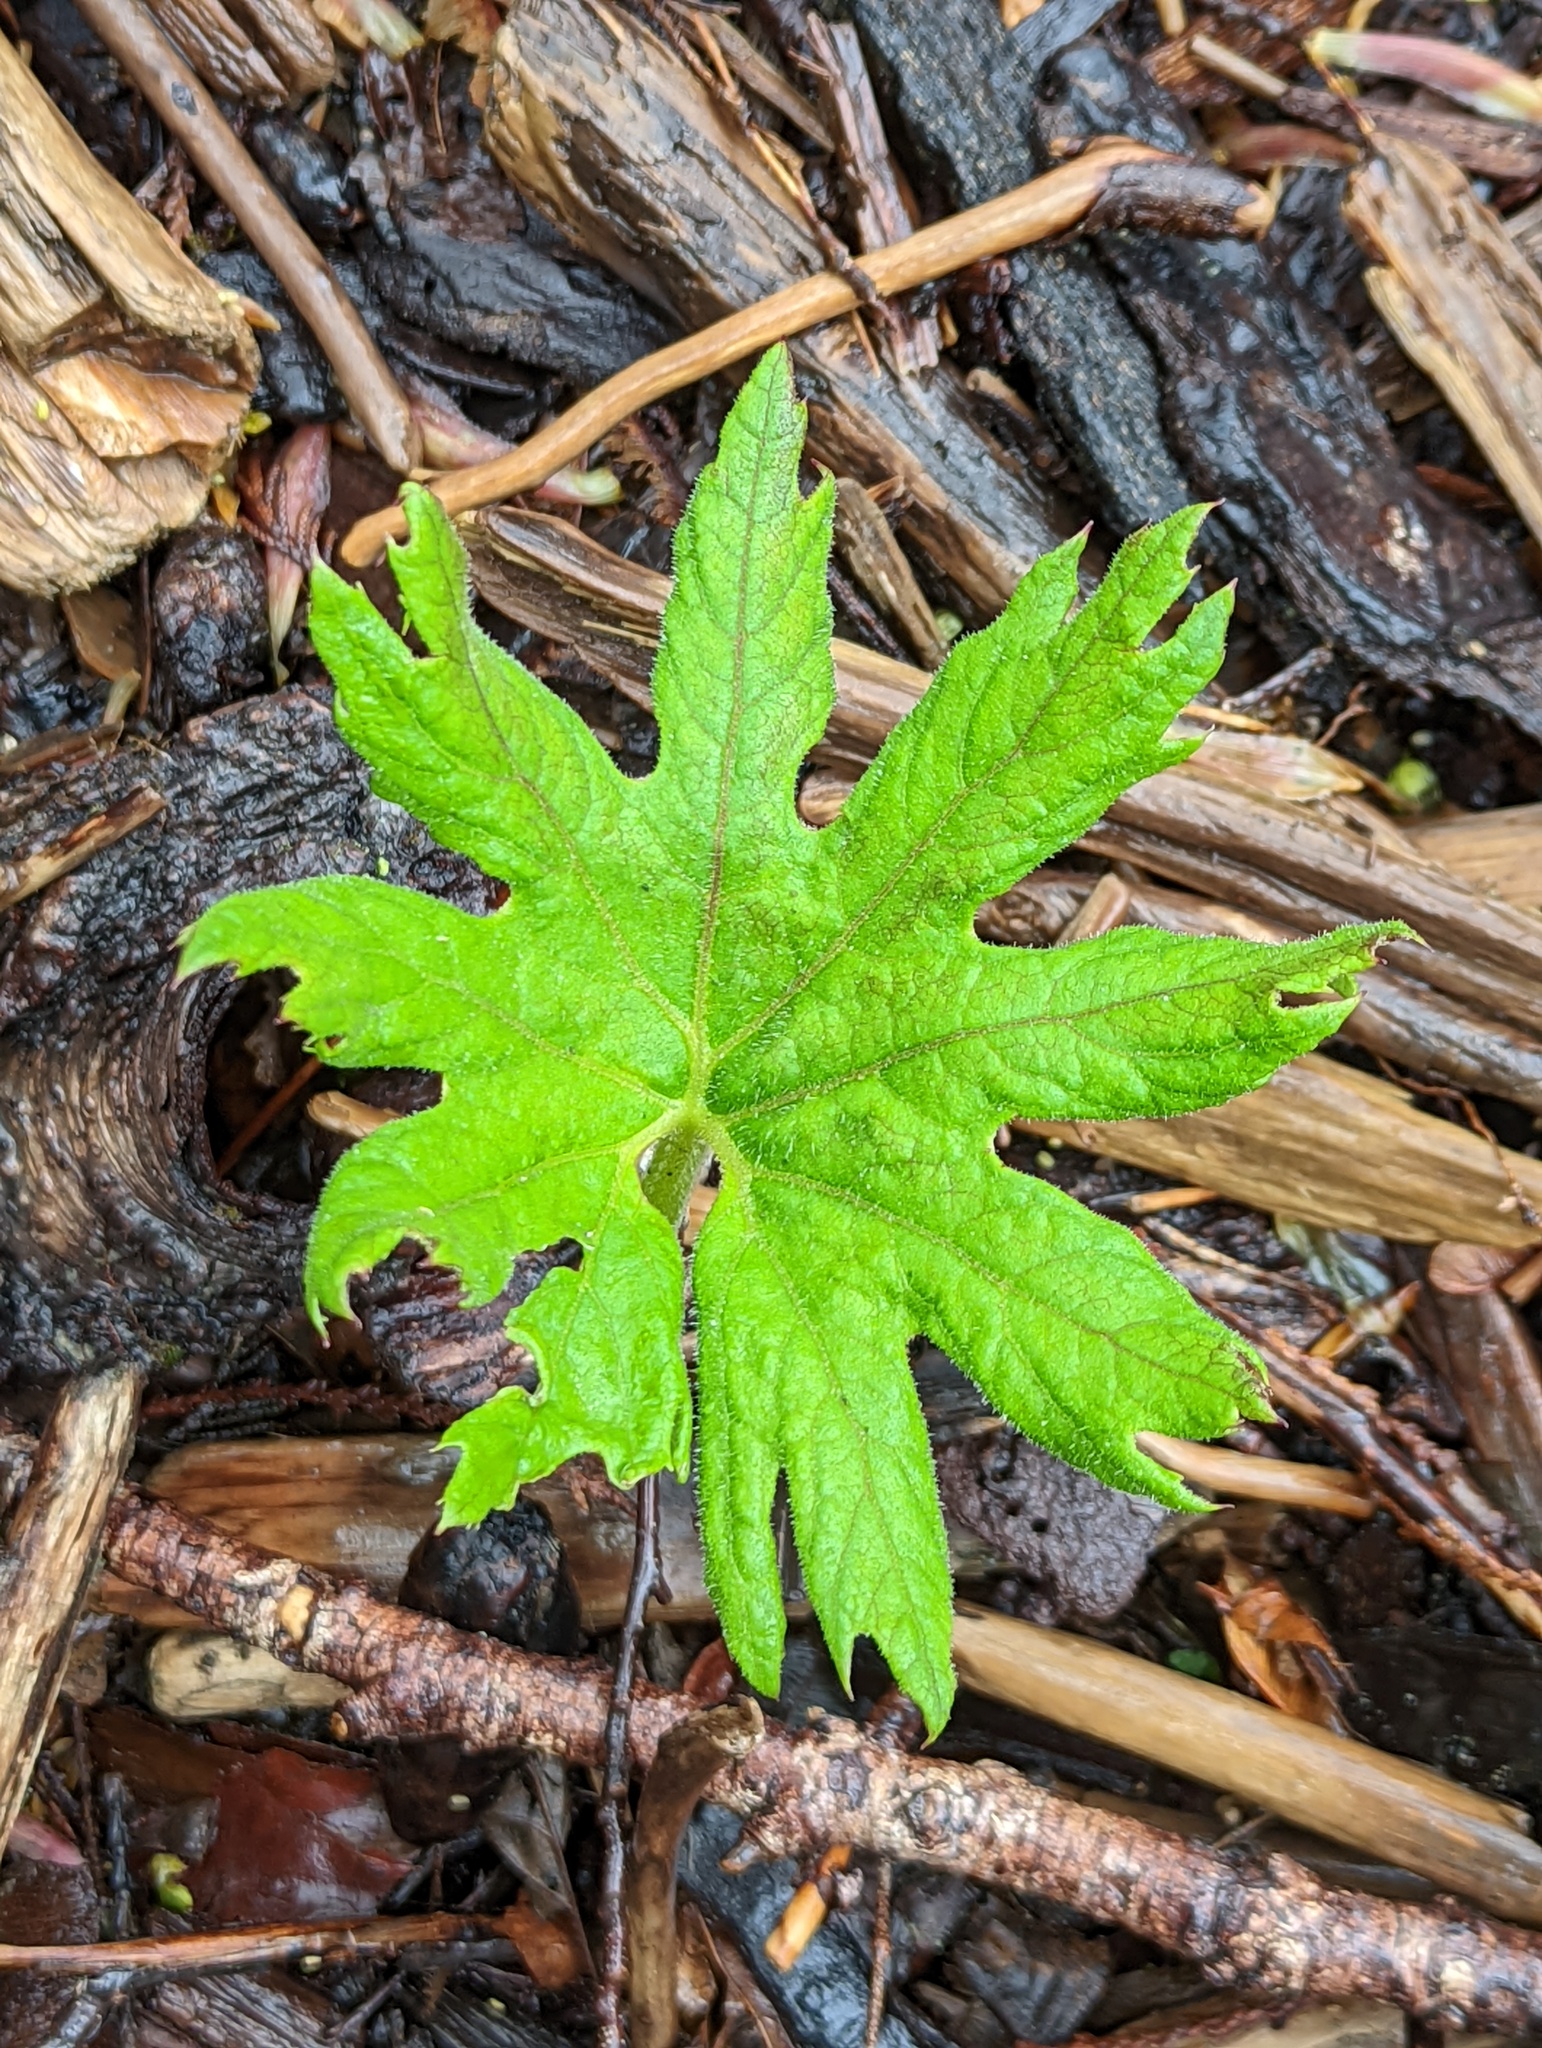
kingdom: Plantae
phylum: Tracheophyta
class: Magnoliopsida
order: Asterales
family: Asteraceae
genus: Petasites
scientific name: Petasites frigidus
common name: Arctic butterbur
